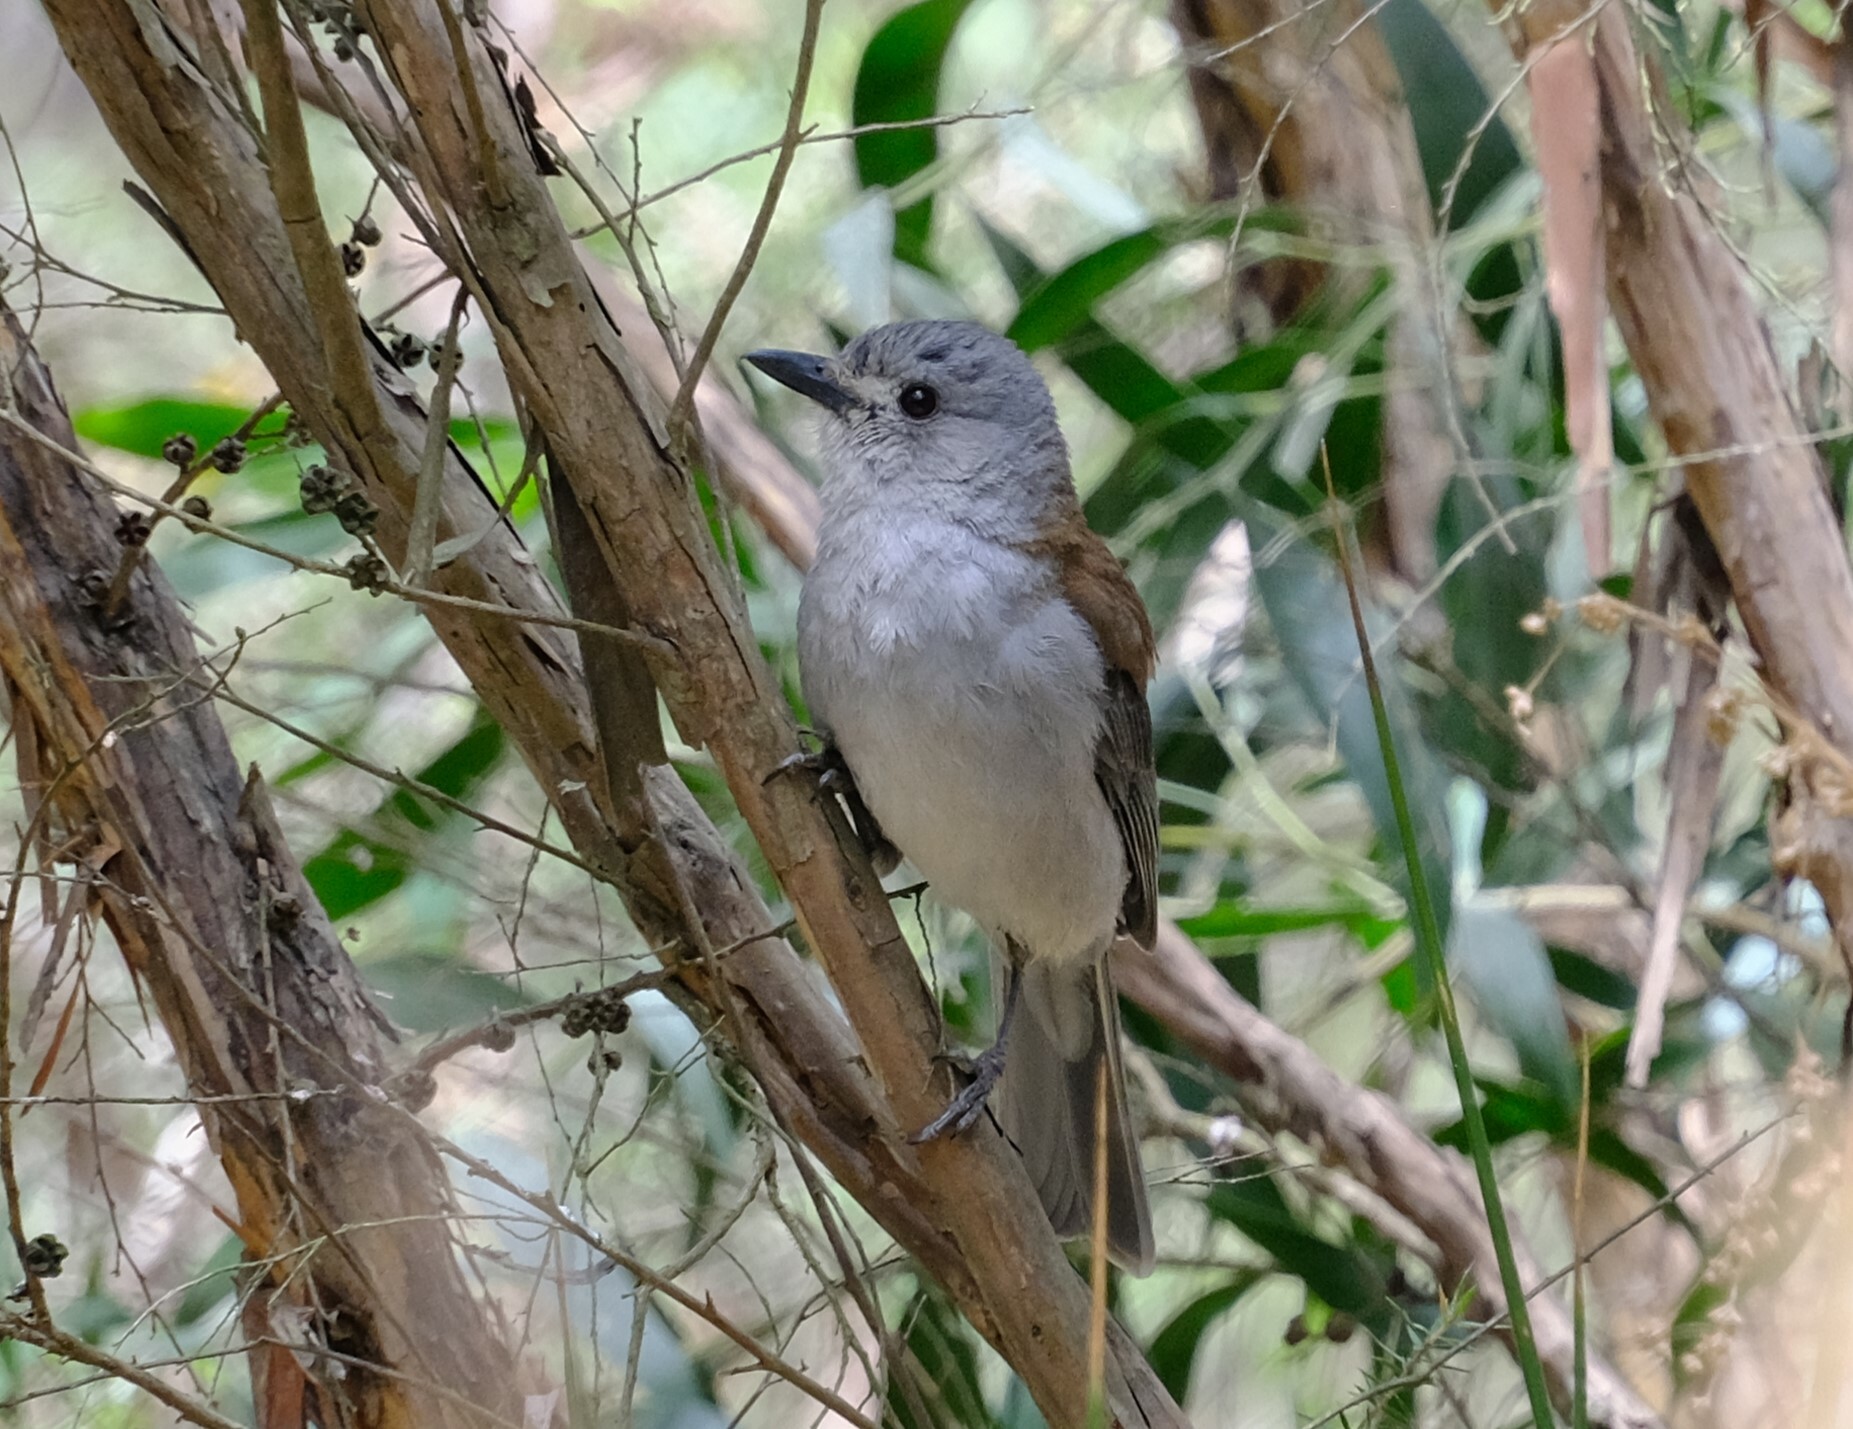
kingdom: Animalia
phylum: Chordata
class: Aves
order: Passeriformes
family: Pachycephalidae
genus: Colluricincla
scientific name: Colluricincla harmonica
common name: Grey shrikethrush
